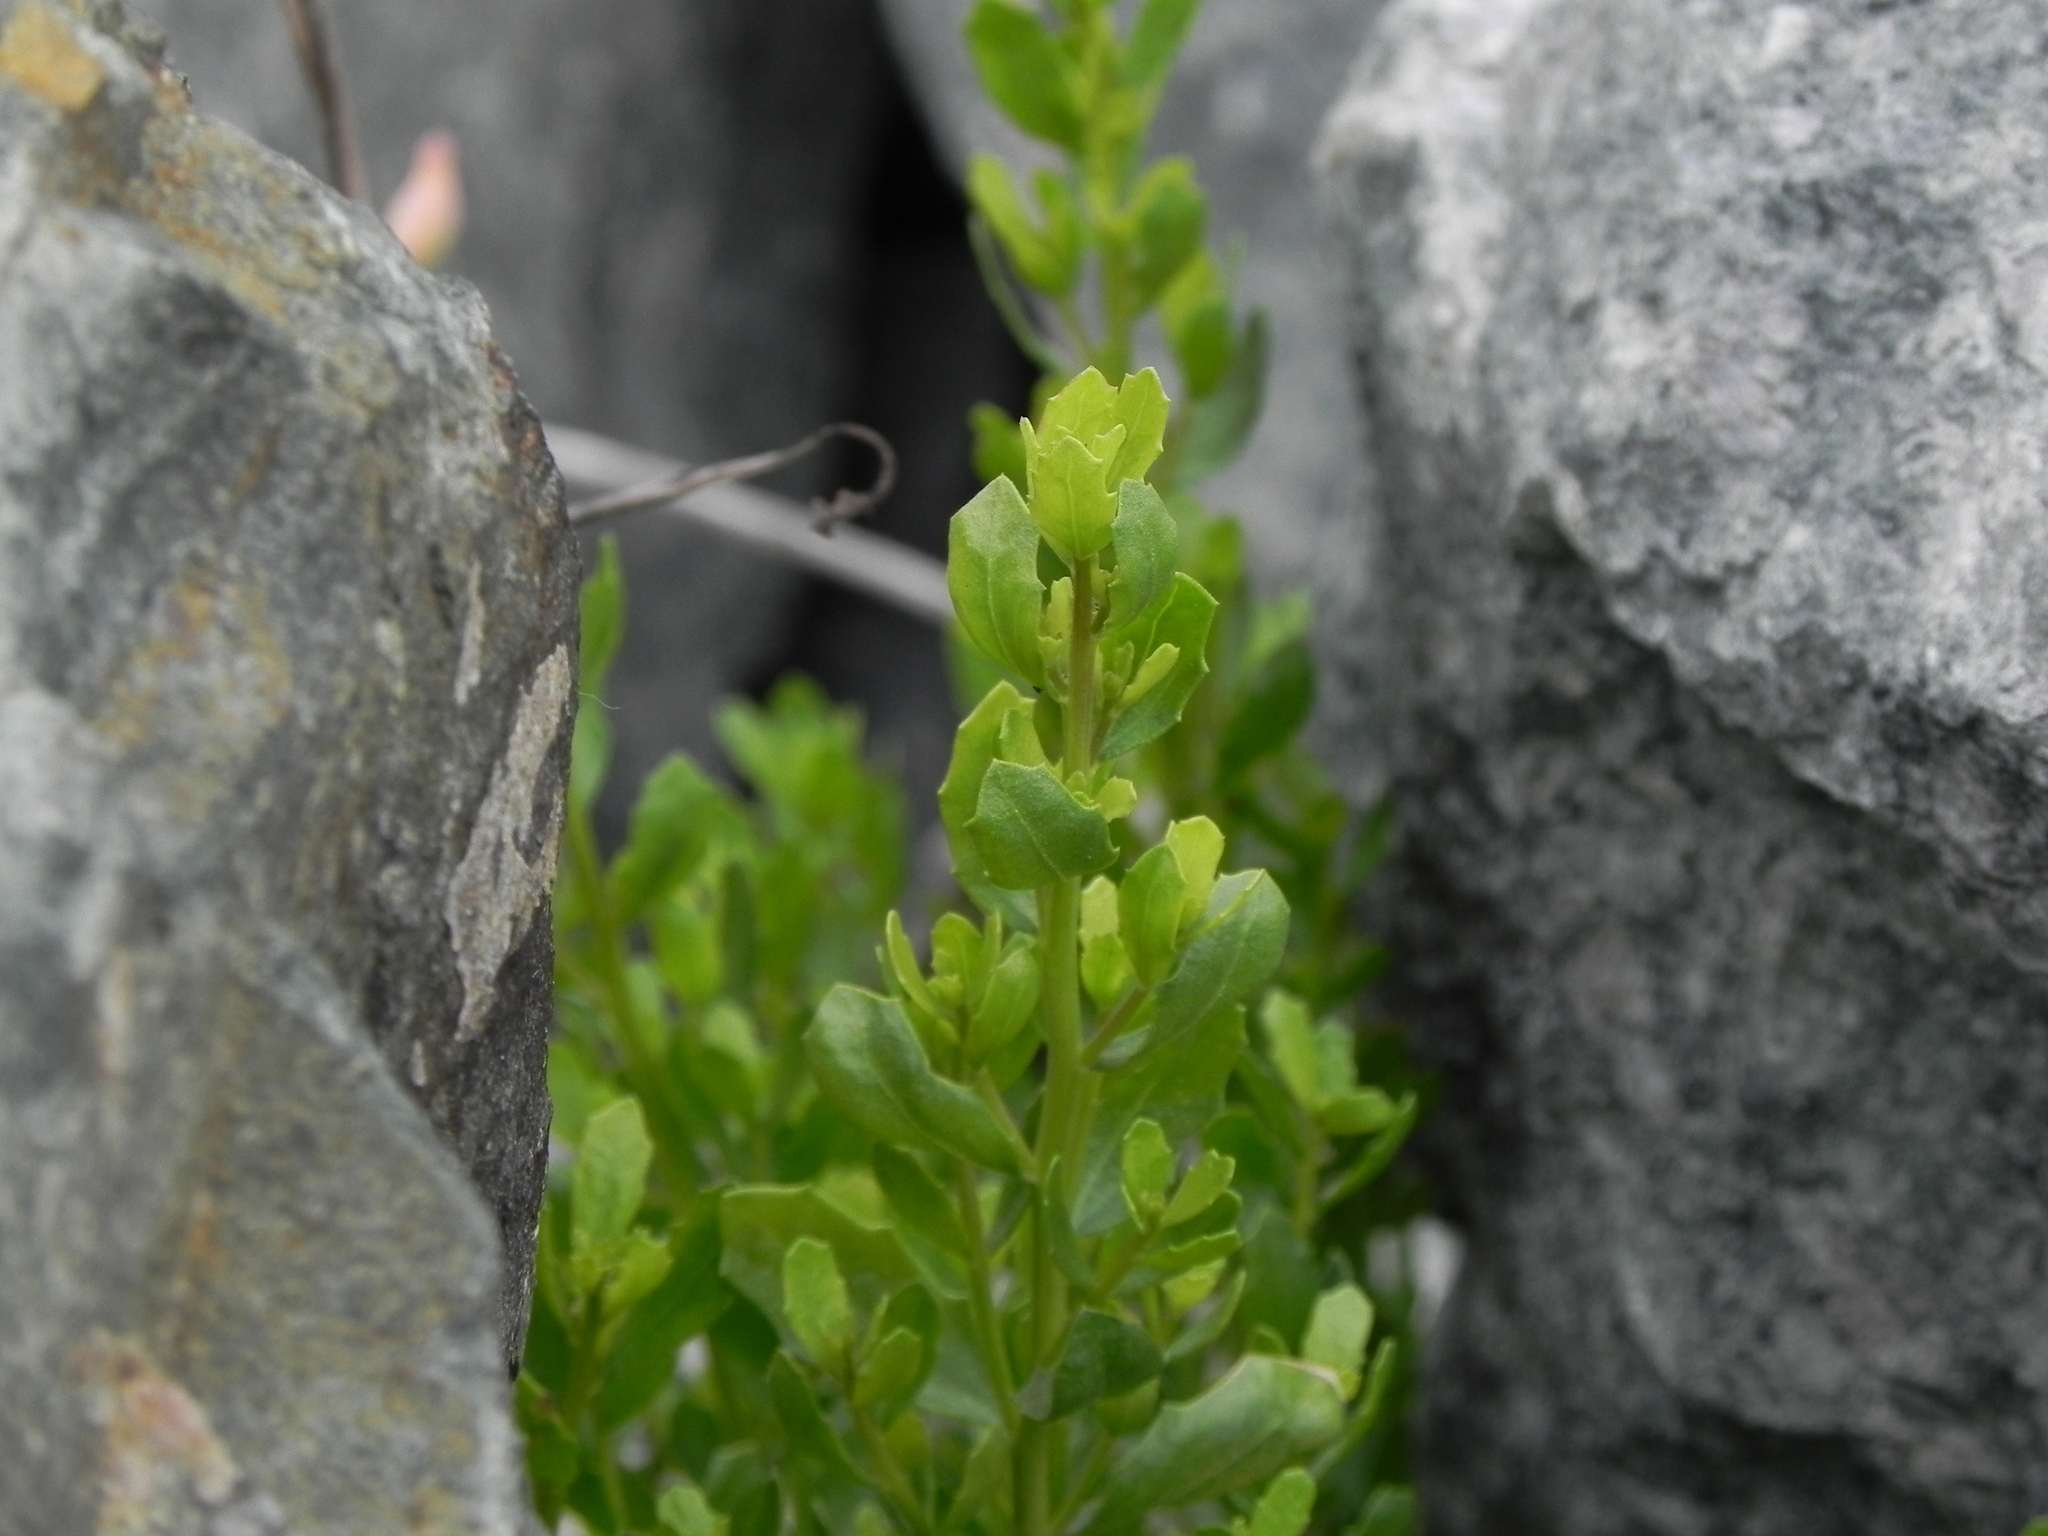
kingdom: Plantae
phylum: Tracheophyta
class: Magnoliopsida
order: Asterales
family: Asteraceae
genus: Baccharis
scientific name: Baccharis pilularis
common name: Coyotebrush
